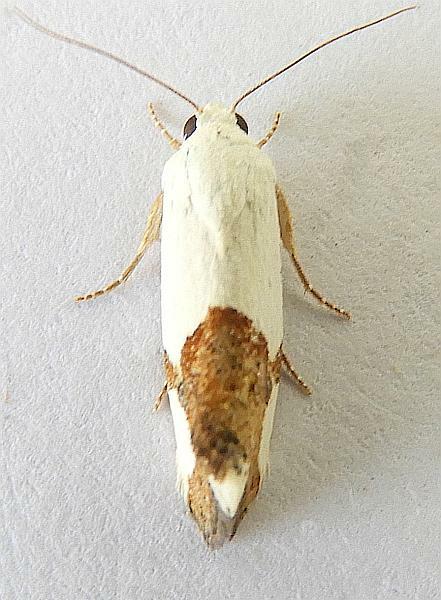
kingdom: Animalia
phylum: Arthropoda
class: Insecta
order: Lepidoptera
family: Noctuidae
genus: Acontia
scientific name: Acontia cuta
